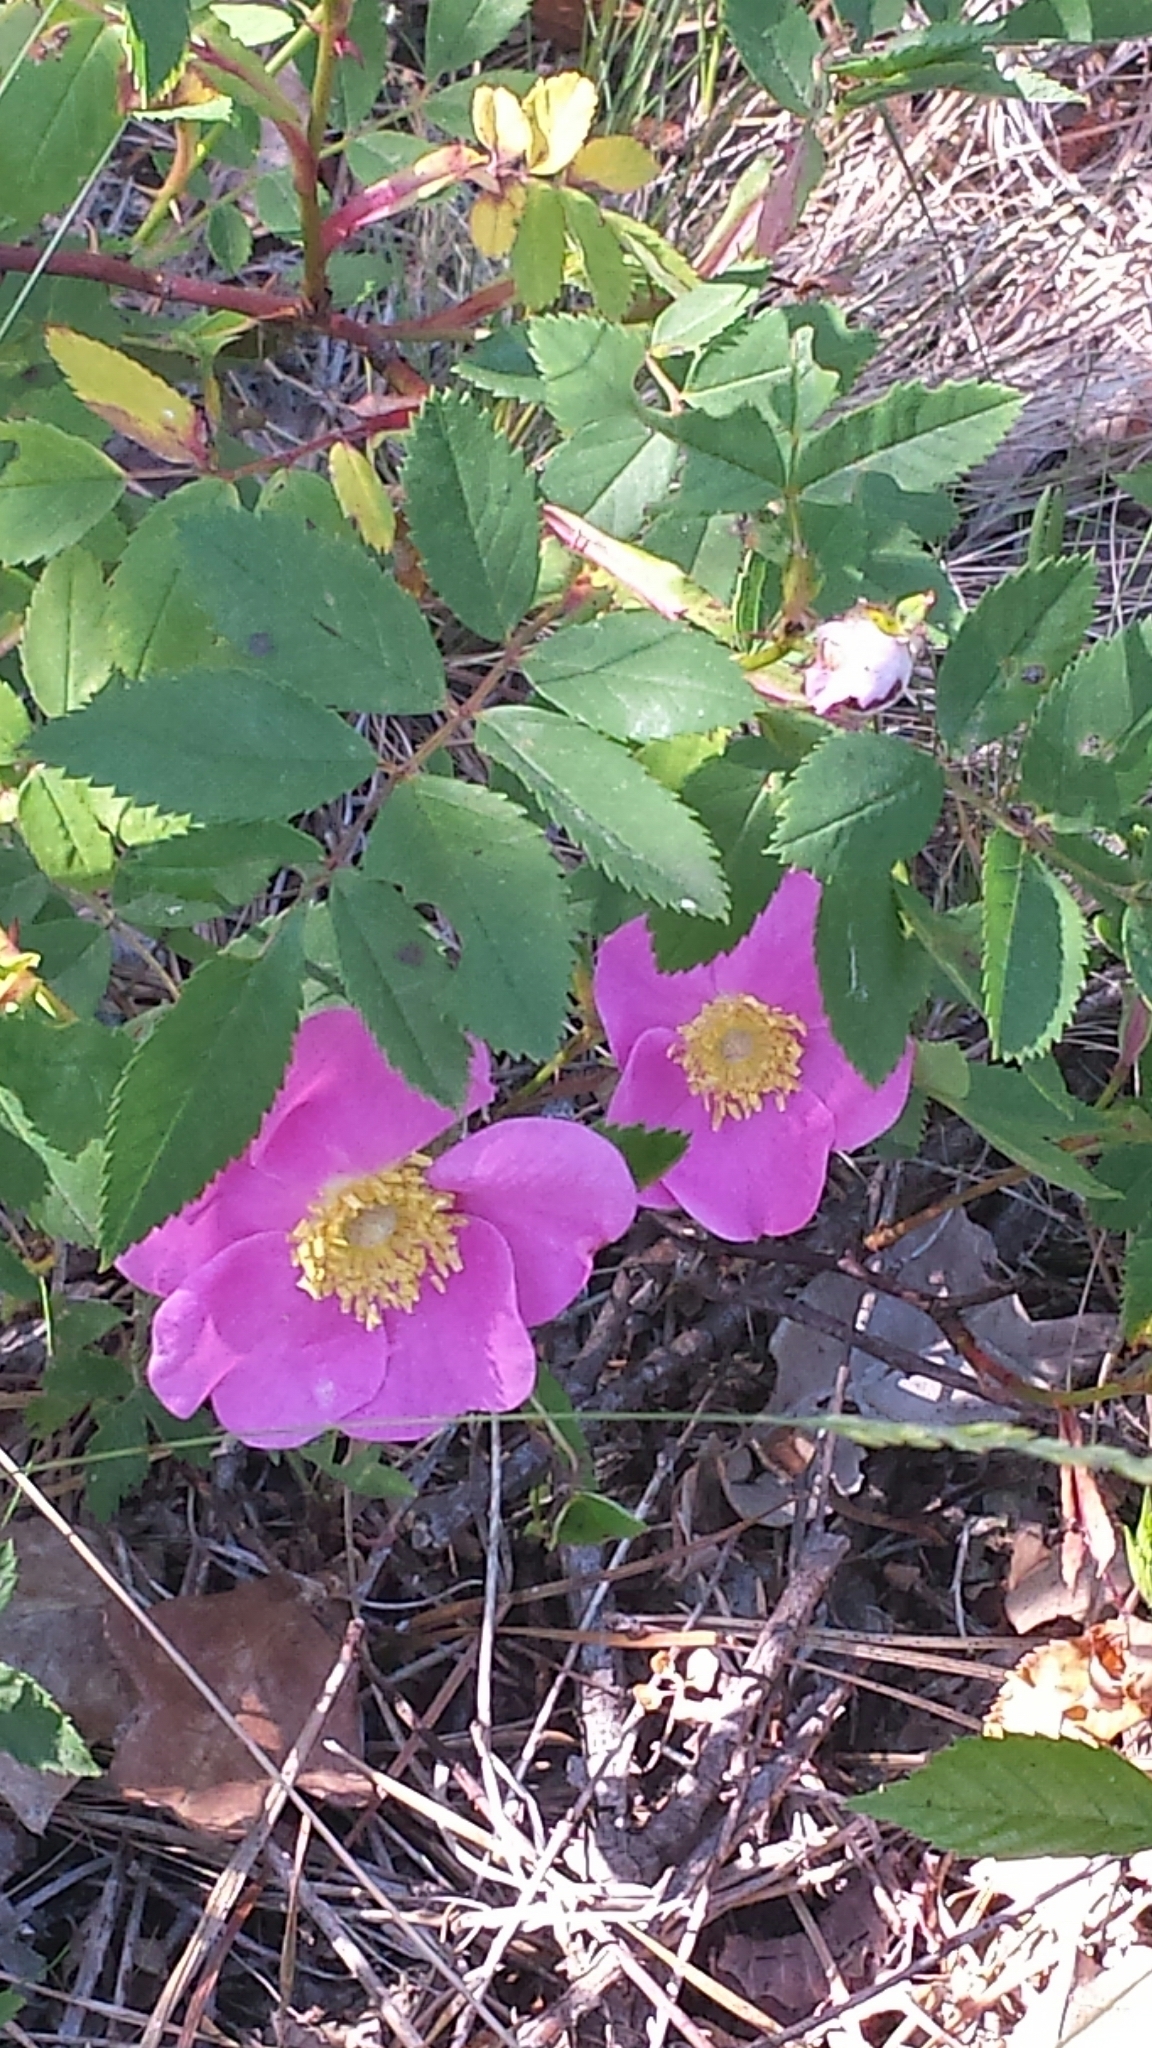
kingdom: Plantae
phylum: Tracheophyta
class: Magnoliopsida
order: Rosales
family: Rosaceae
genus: Rosa
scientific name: Rosa carolina
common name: Pasture rose
